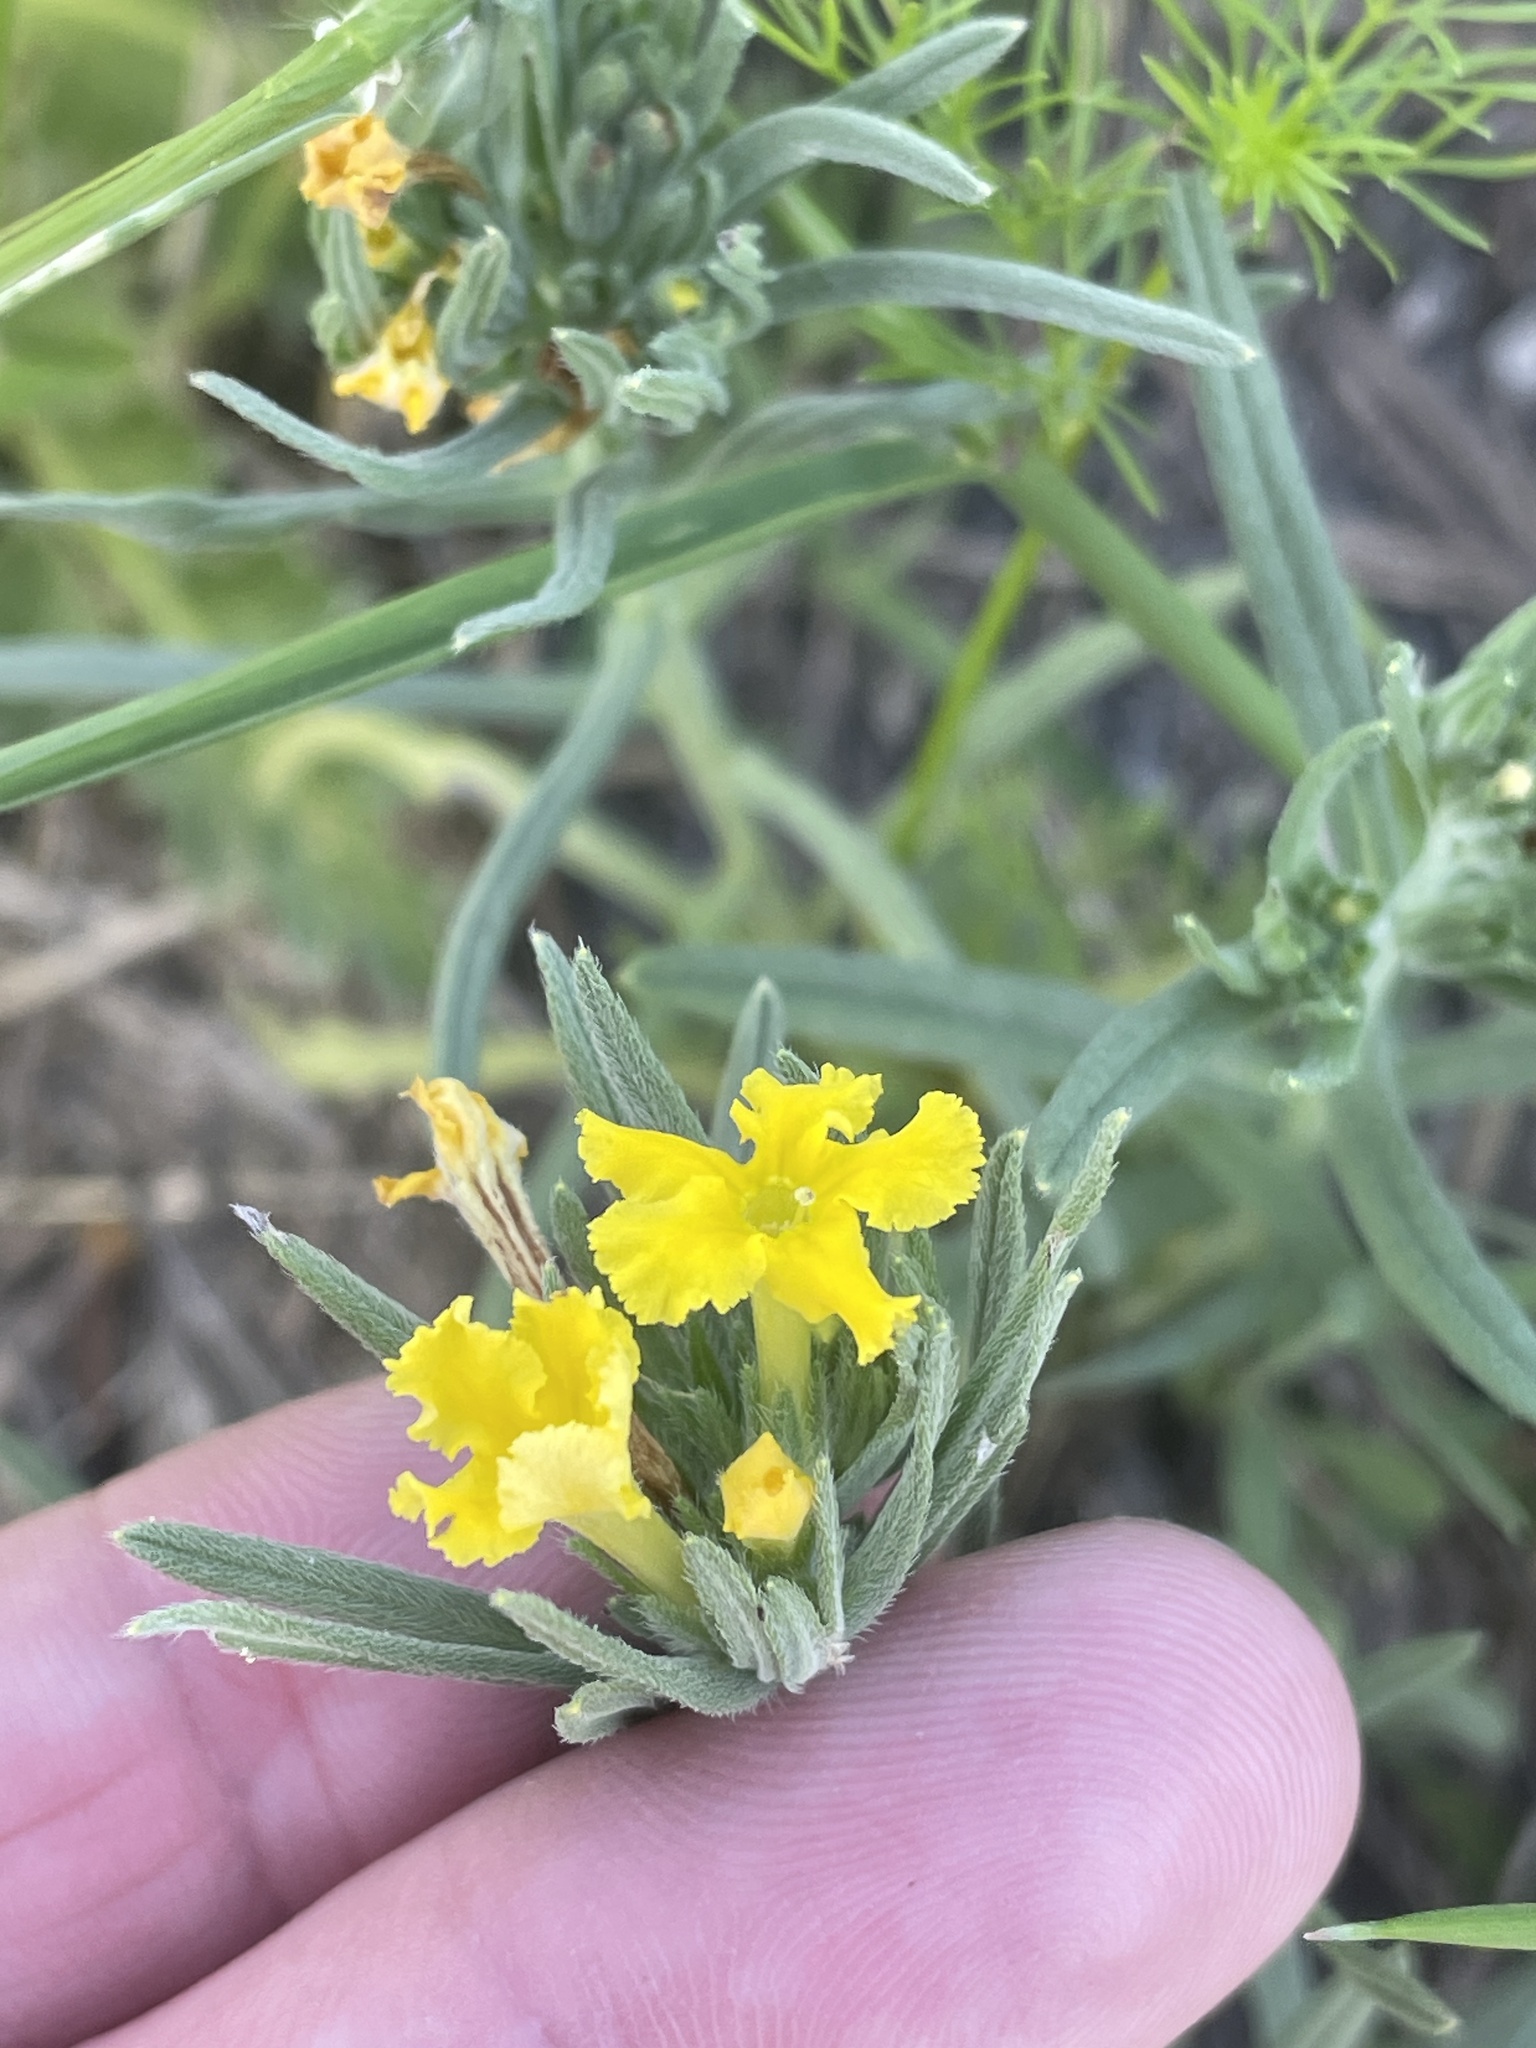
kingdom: Plantae
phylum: Tracheophyta
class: Magnoliopsida
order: Boraginales
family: Boraginaceae
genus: Lithospermum
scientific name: Lithospermum incisum
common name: Fringed gromwell
